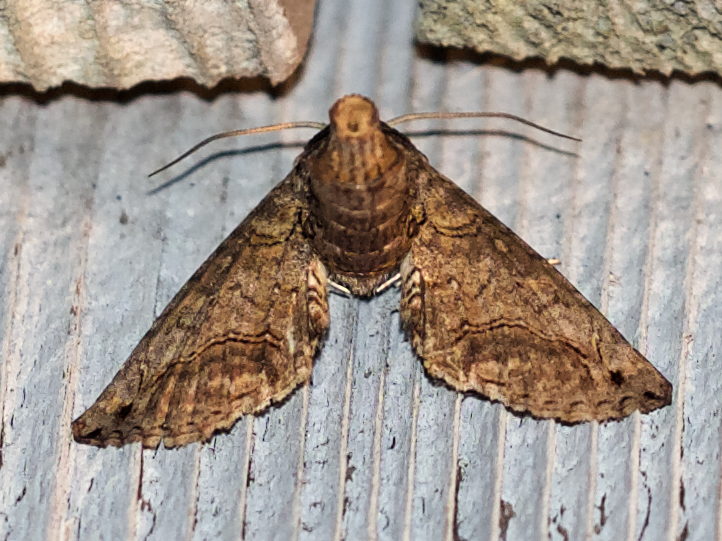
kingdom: Animalia
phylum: Arthropoda
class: Insecta
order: Lepidoptera
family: Euteliidae
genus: Paectes
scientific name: Paectes abrostoloides
